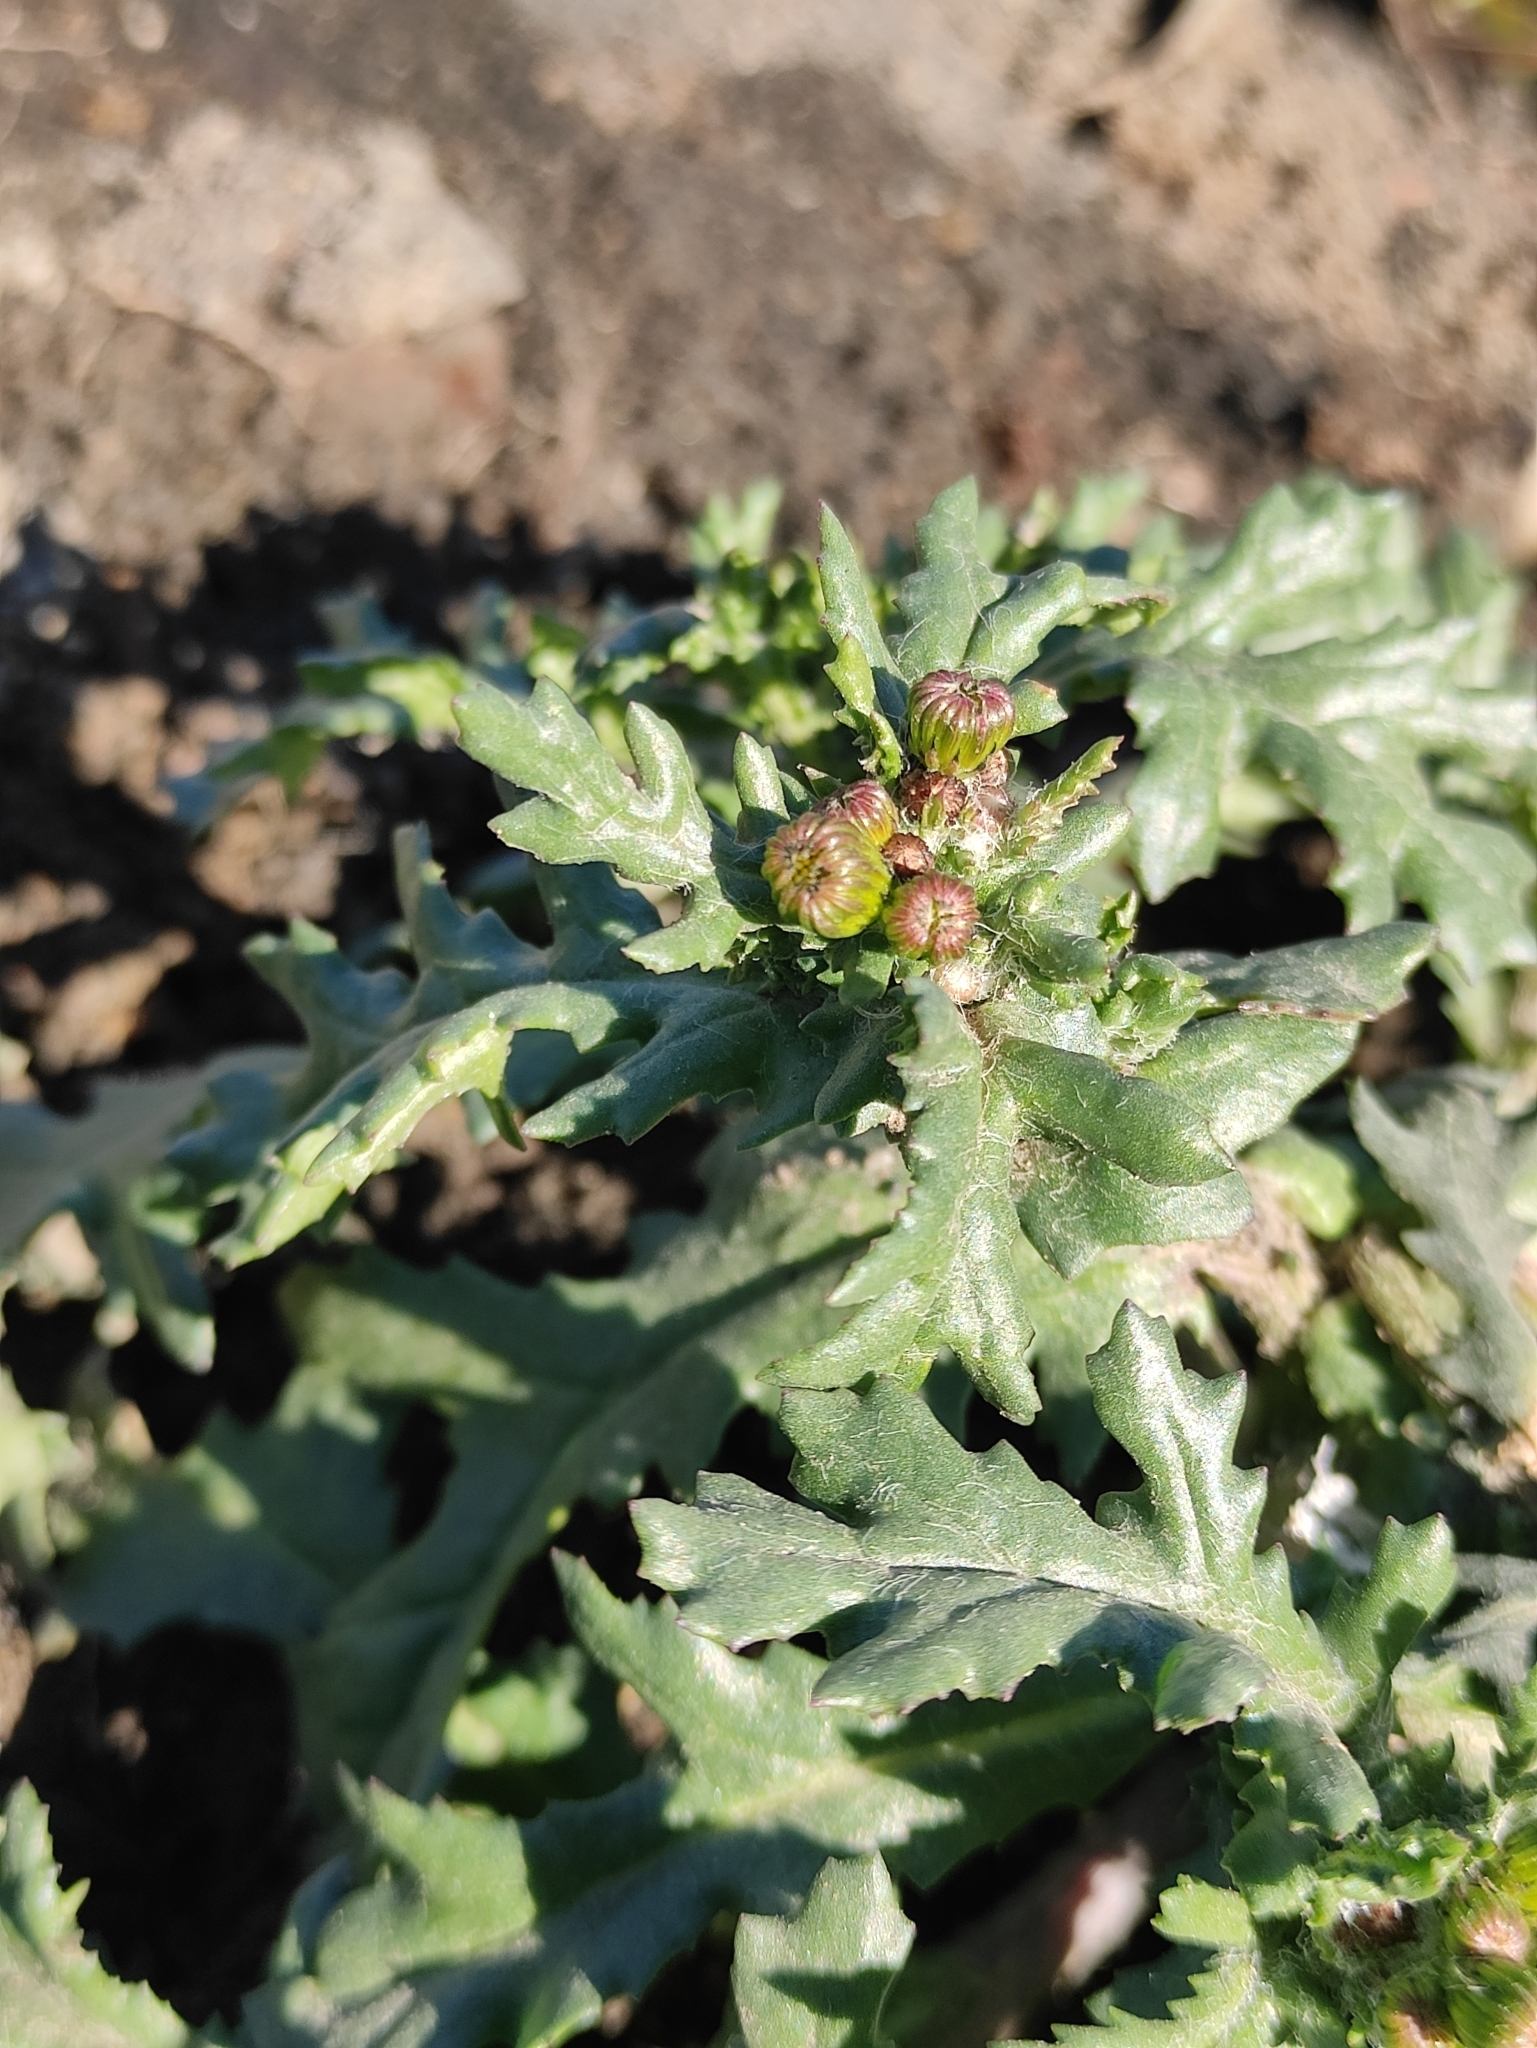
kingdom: Plantae
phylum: Tracheophyta
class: Magnoliopsida
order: Asterales
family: Asteraceae
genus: Senecio
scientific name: Senecio vulgaris
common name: Old-man-in-the-spring
